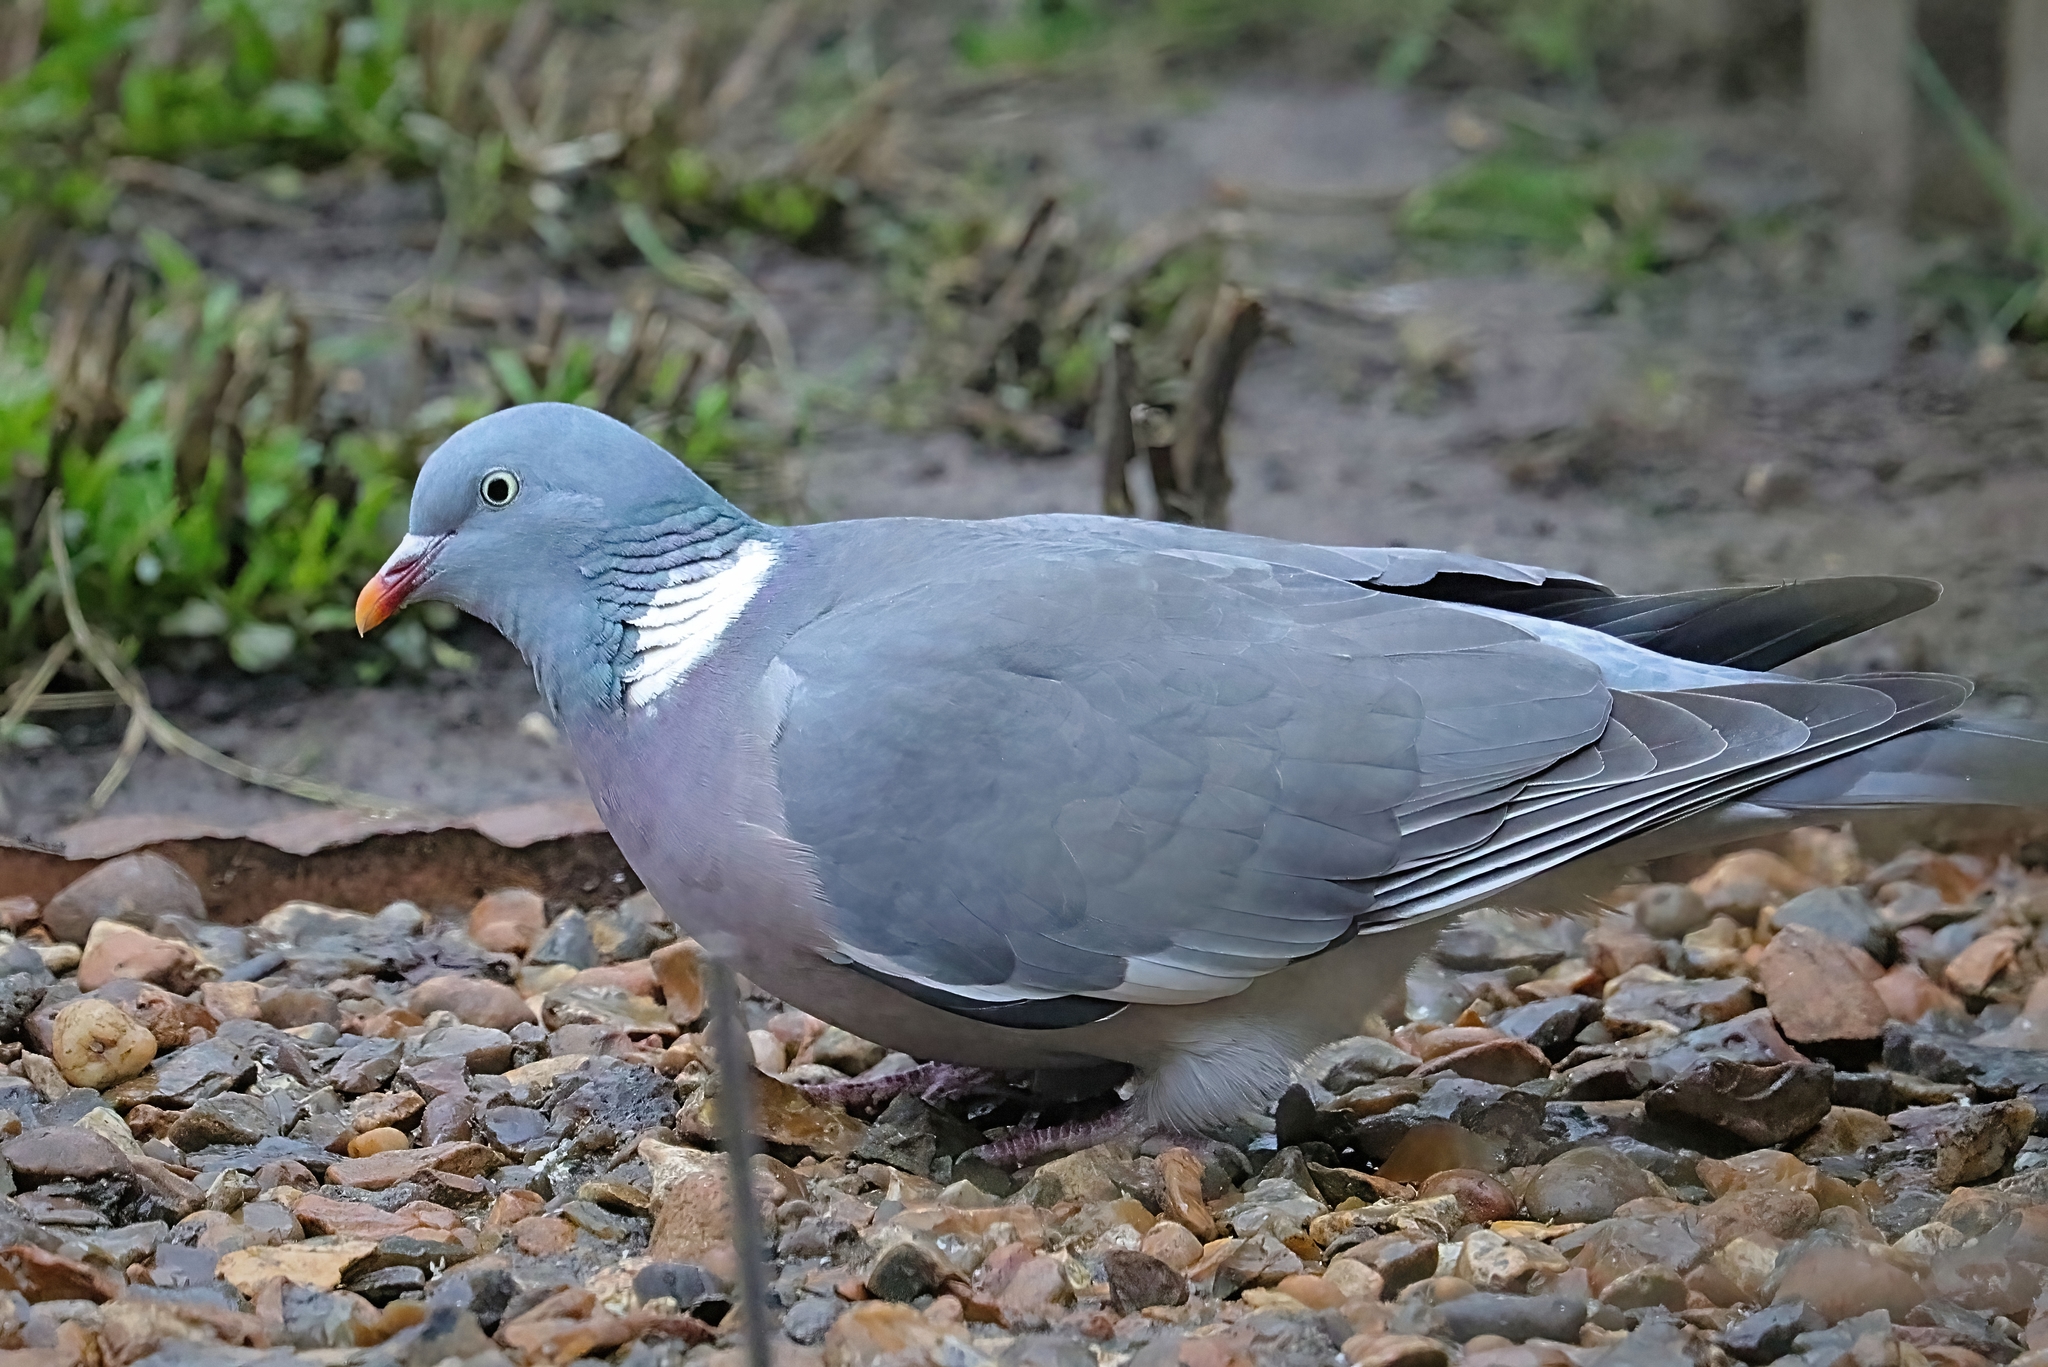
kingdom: Animalia
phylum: Chordata
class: Aves
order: Columbiformes
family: Columbidae
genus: Columba
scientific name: Columba palumbus
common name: Common wood pigeon
